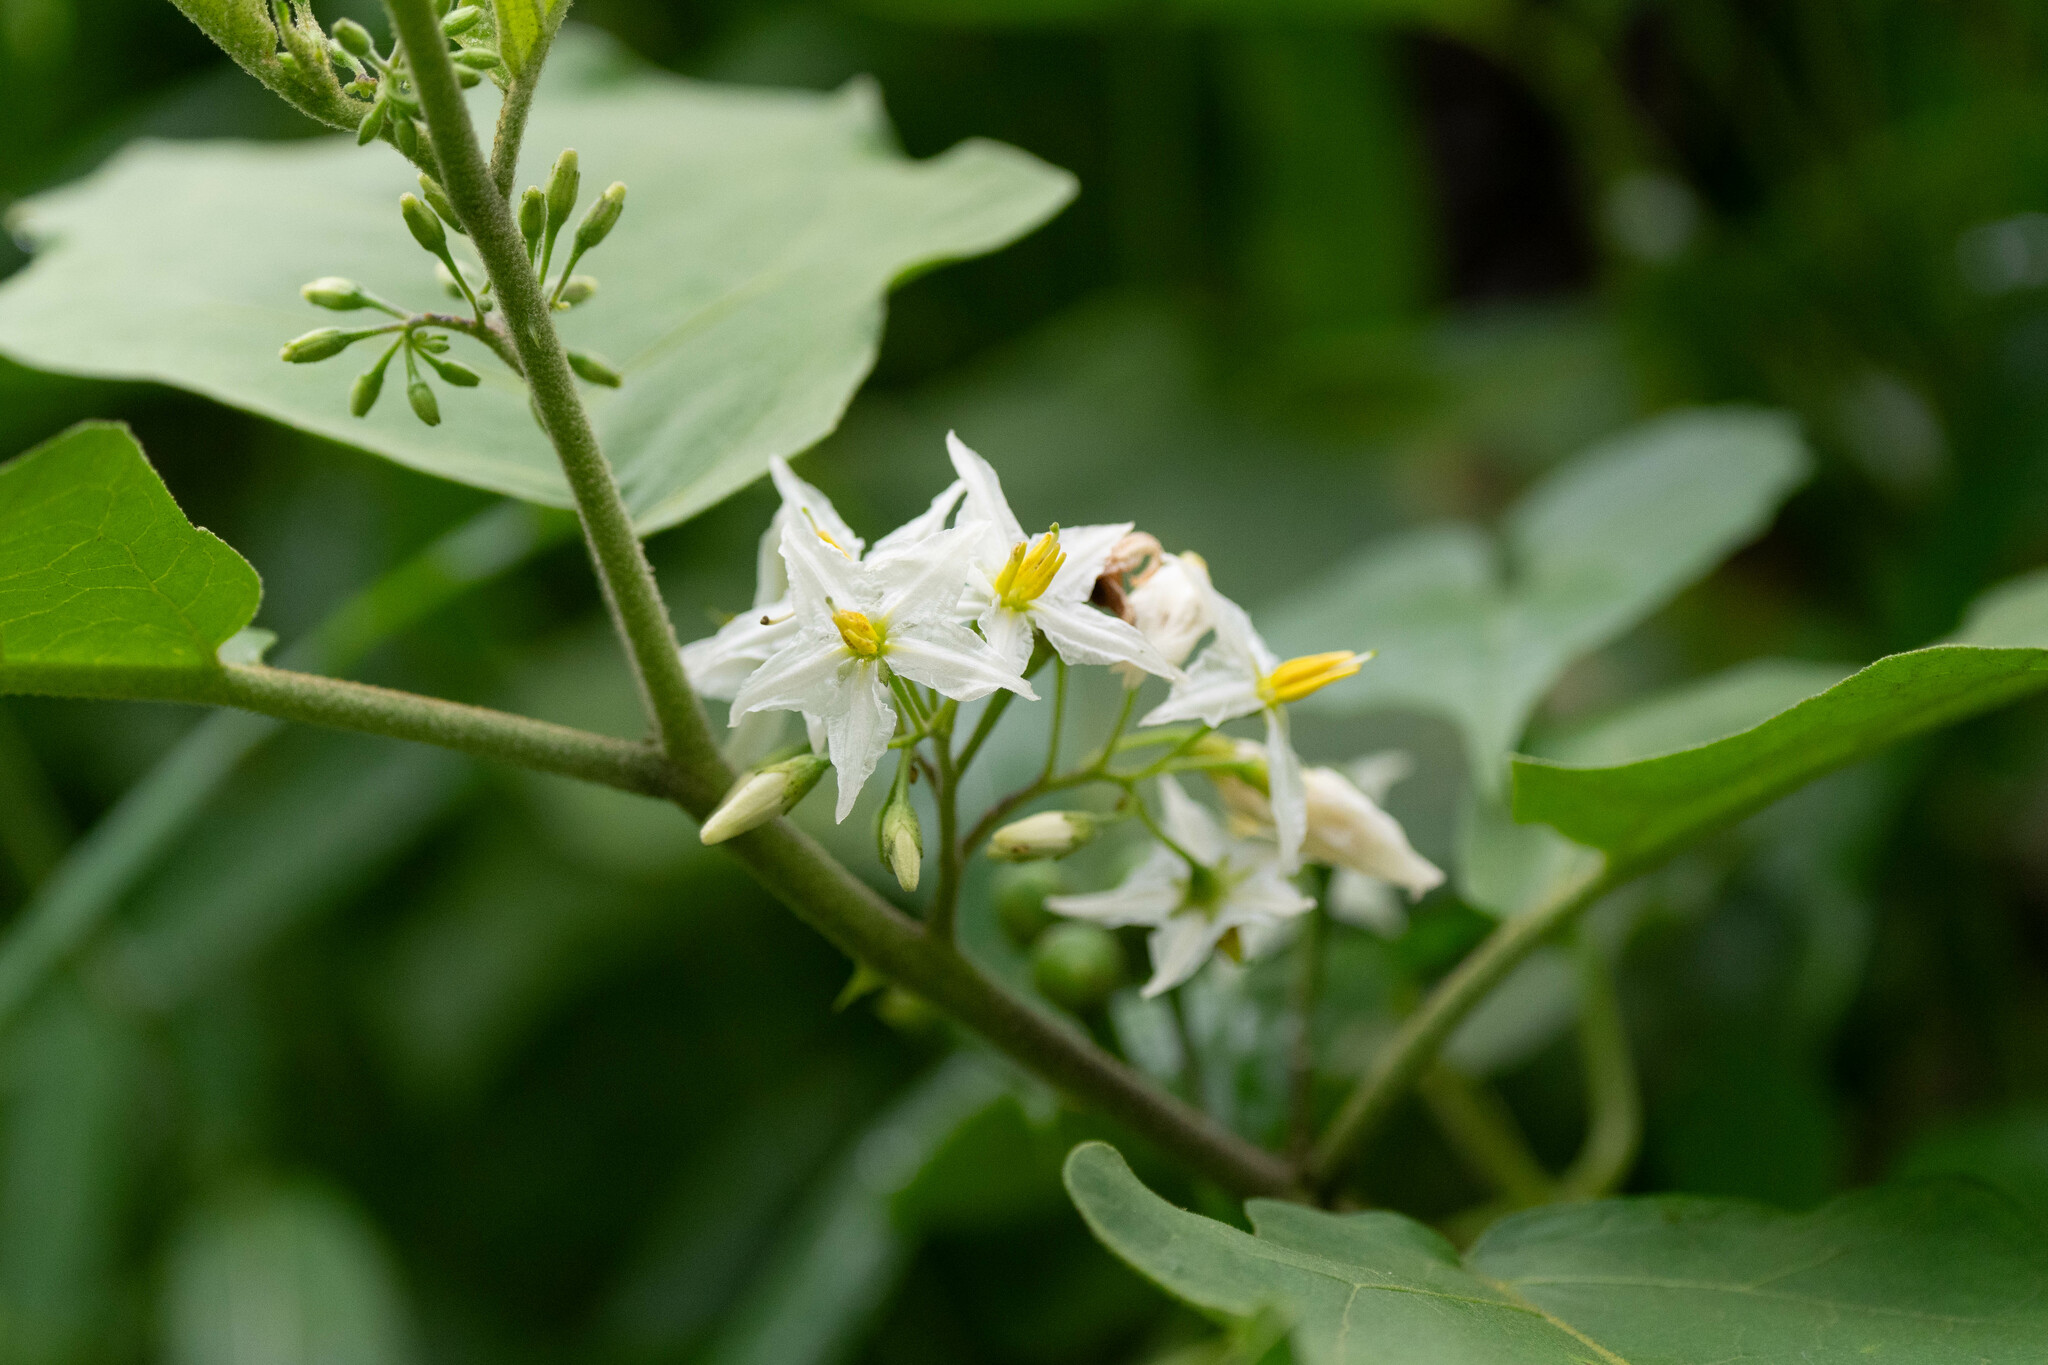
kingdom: Plantae
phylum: Tracheophyta
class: Magnoliopsida
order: Solanales
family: Solanaceae
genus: Solanum
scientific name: Solanum torvum
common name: Turkey berry
